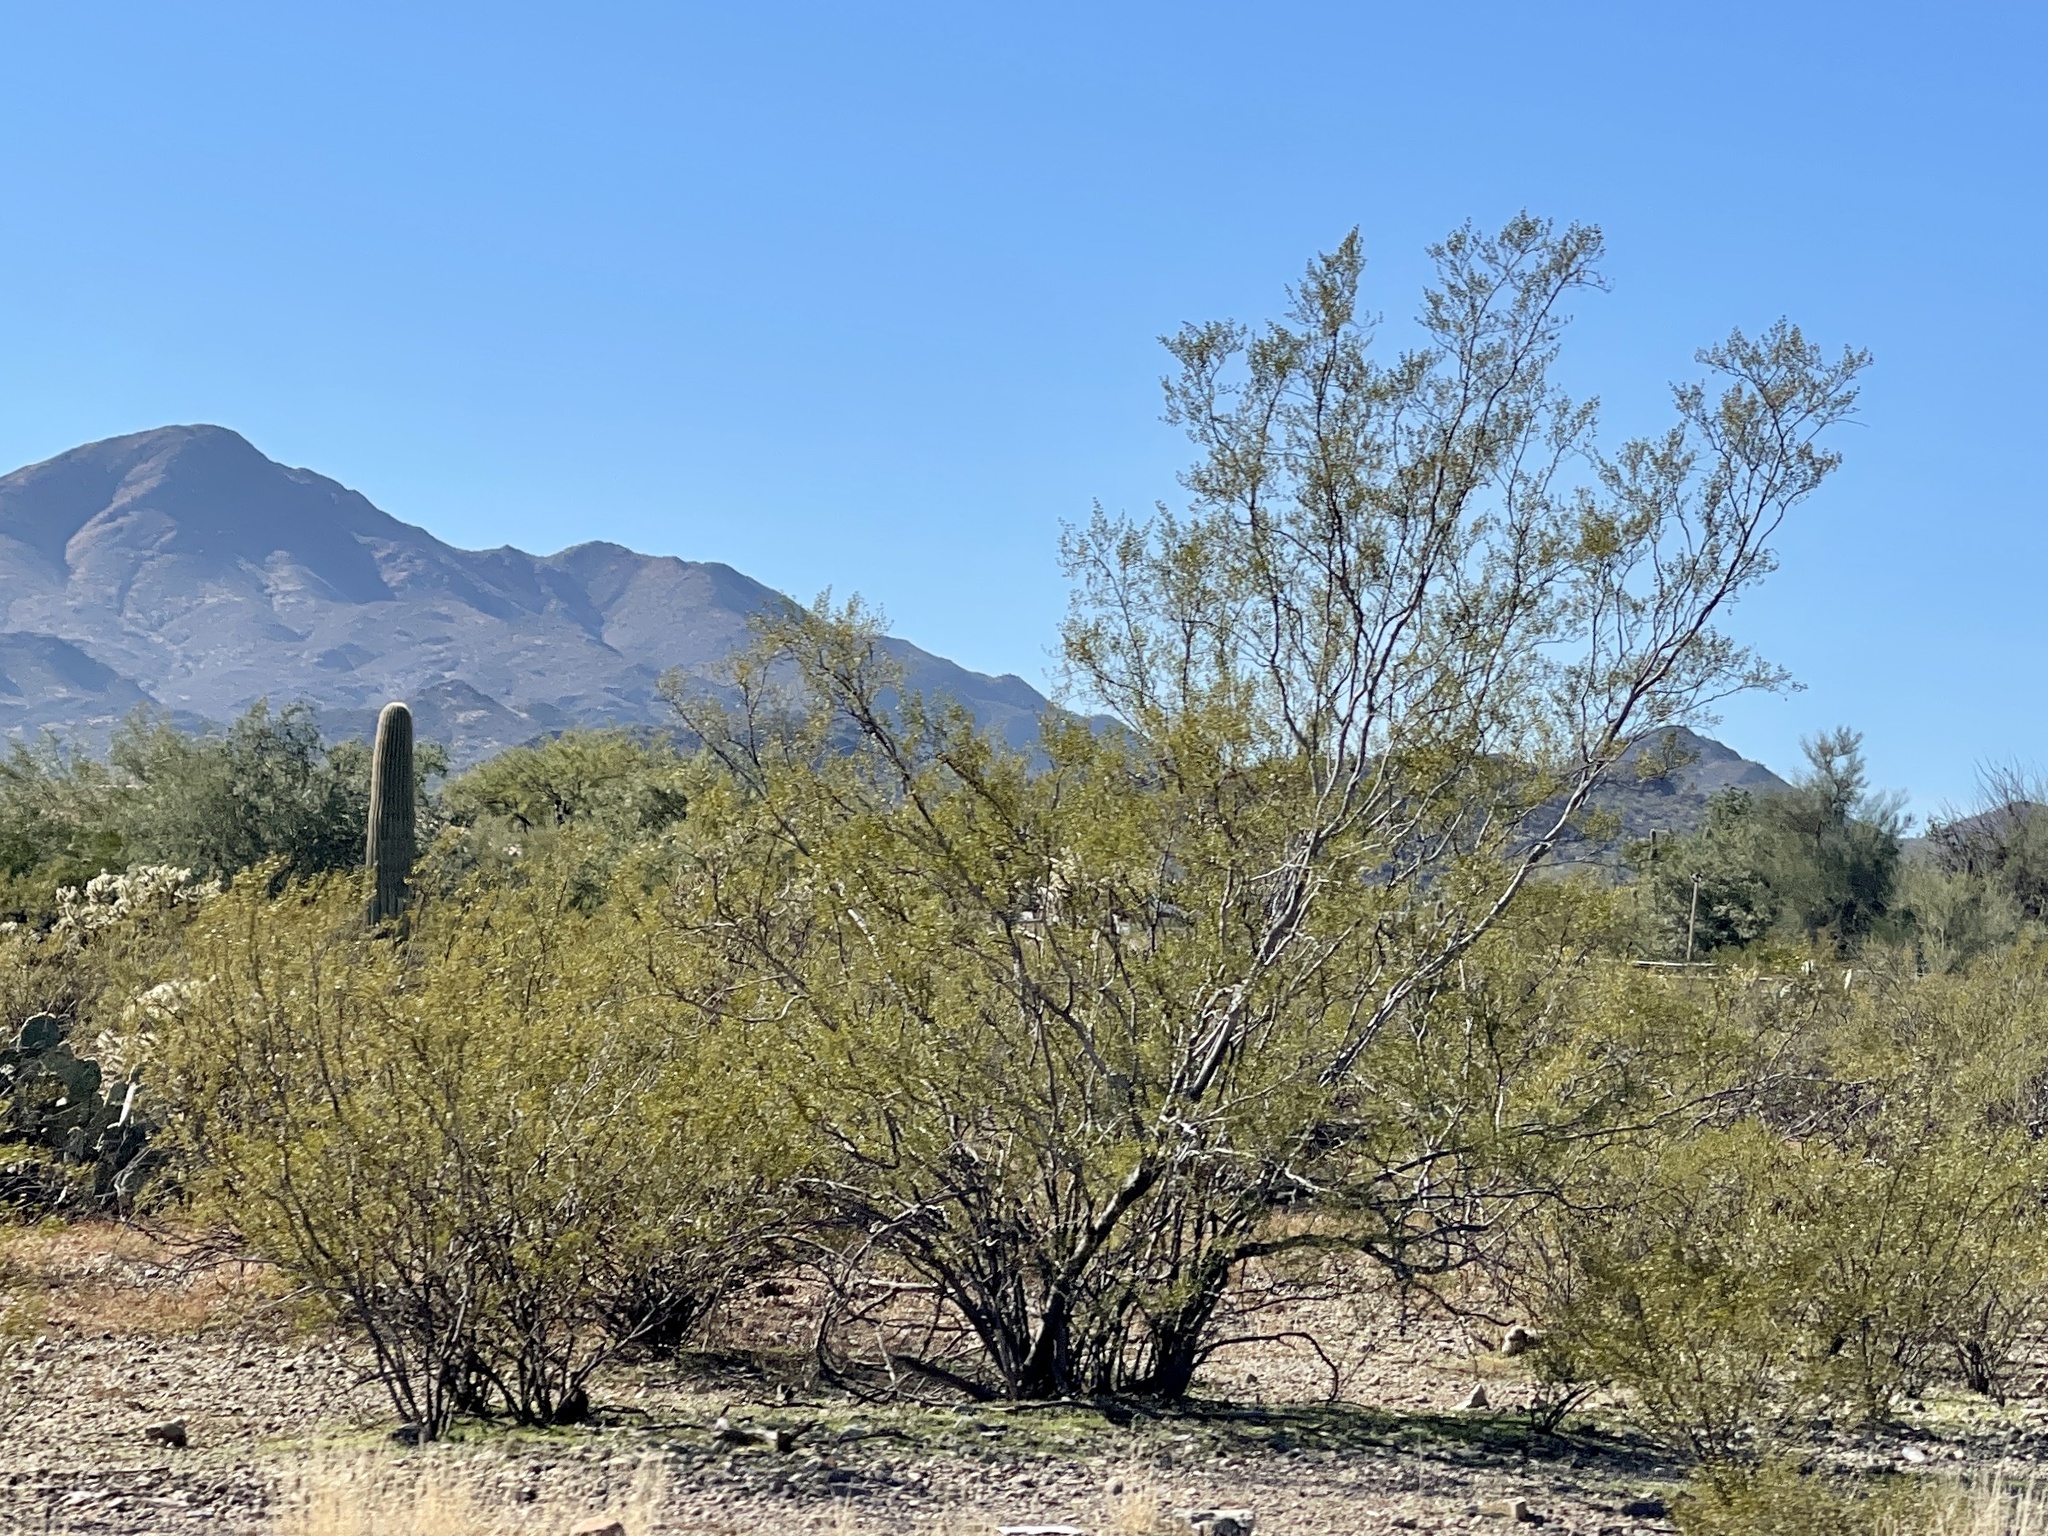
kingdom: Plantae
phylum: Tracheophyta
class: Magnoliopsida
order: Zygophyllales
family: Zygophyllaceae
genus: Larrea
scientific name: Larrea tridentata
